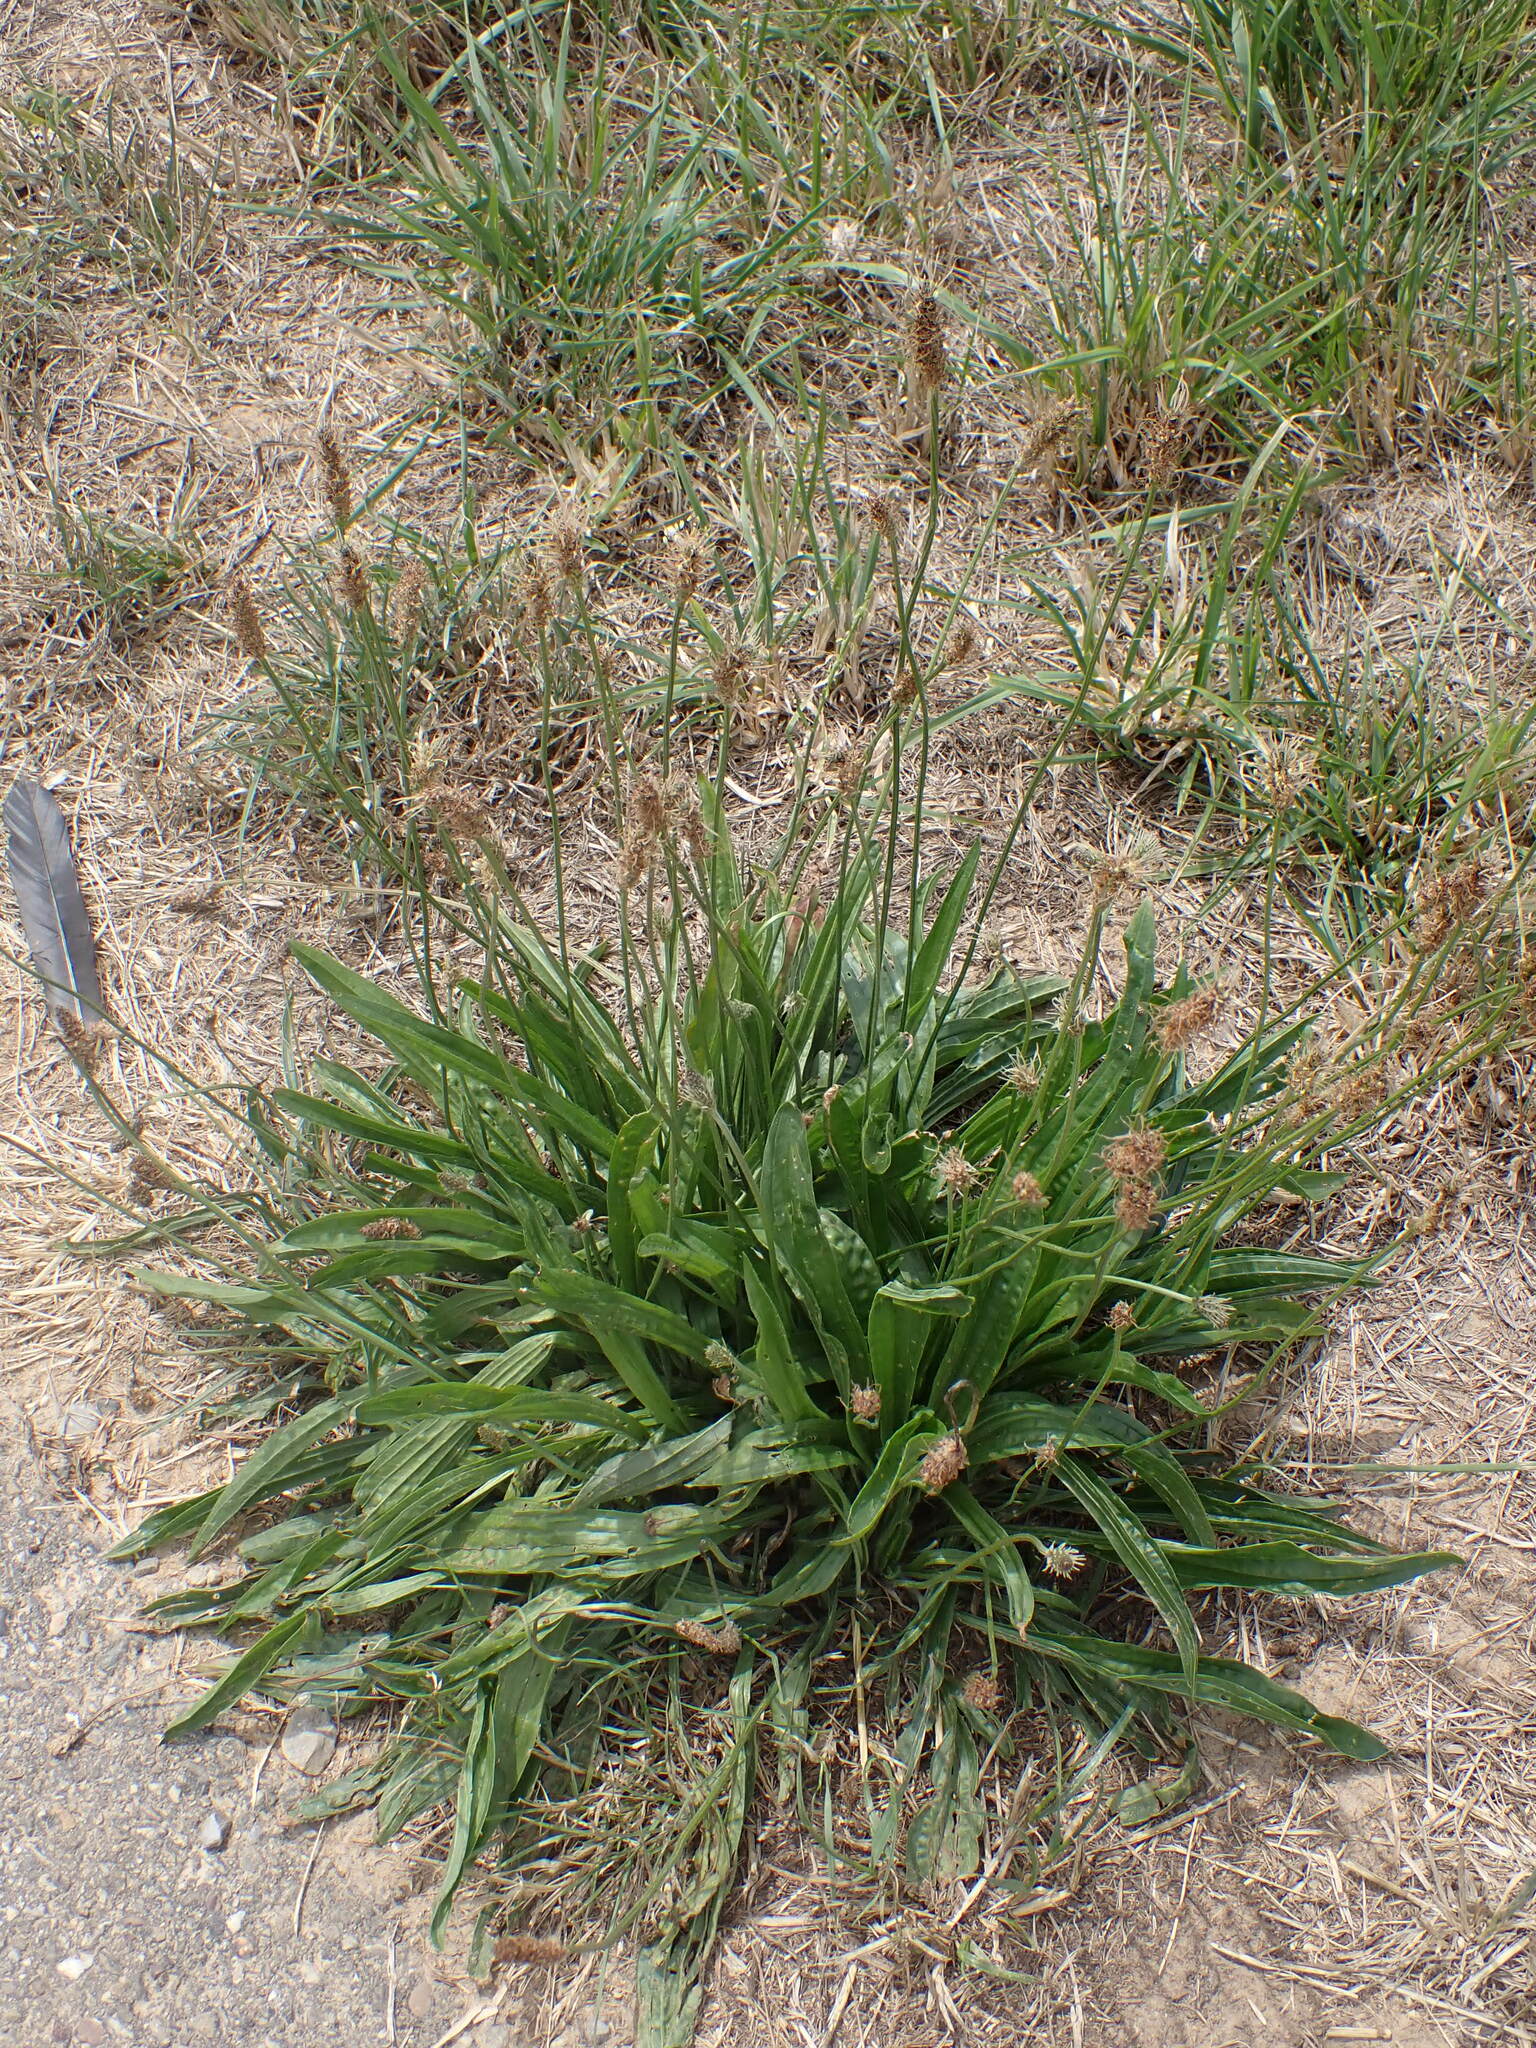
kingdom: Plantae
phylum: Tracheophyta
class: Magnoliopsida
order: Lamiales
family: Plantaginaceae
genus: Plantago
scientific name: Plantago lanceolata
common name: Ribwort plantain
